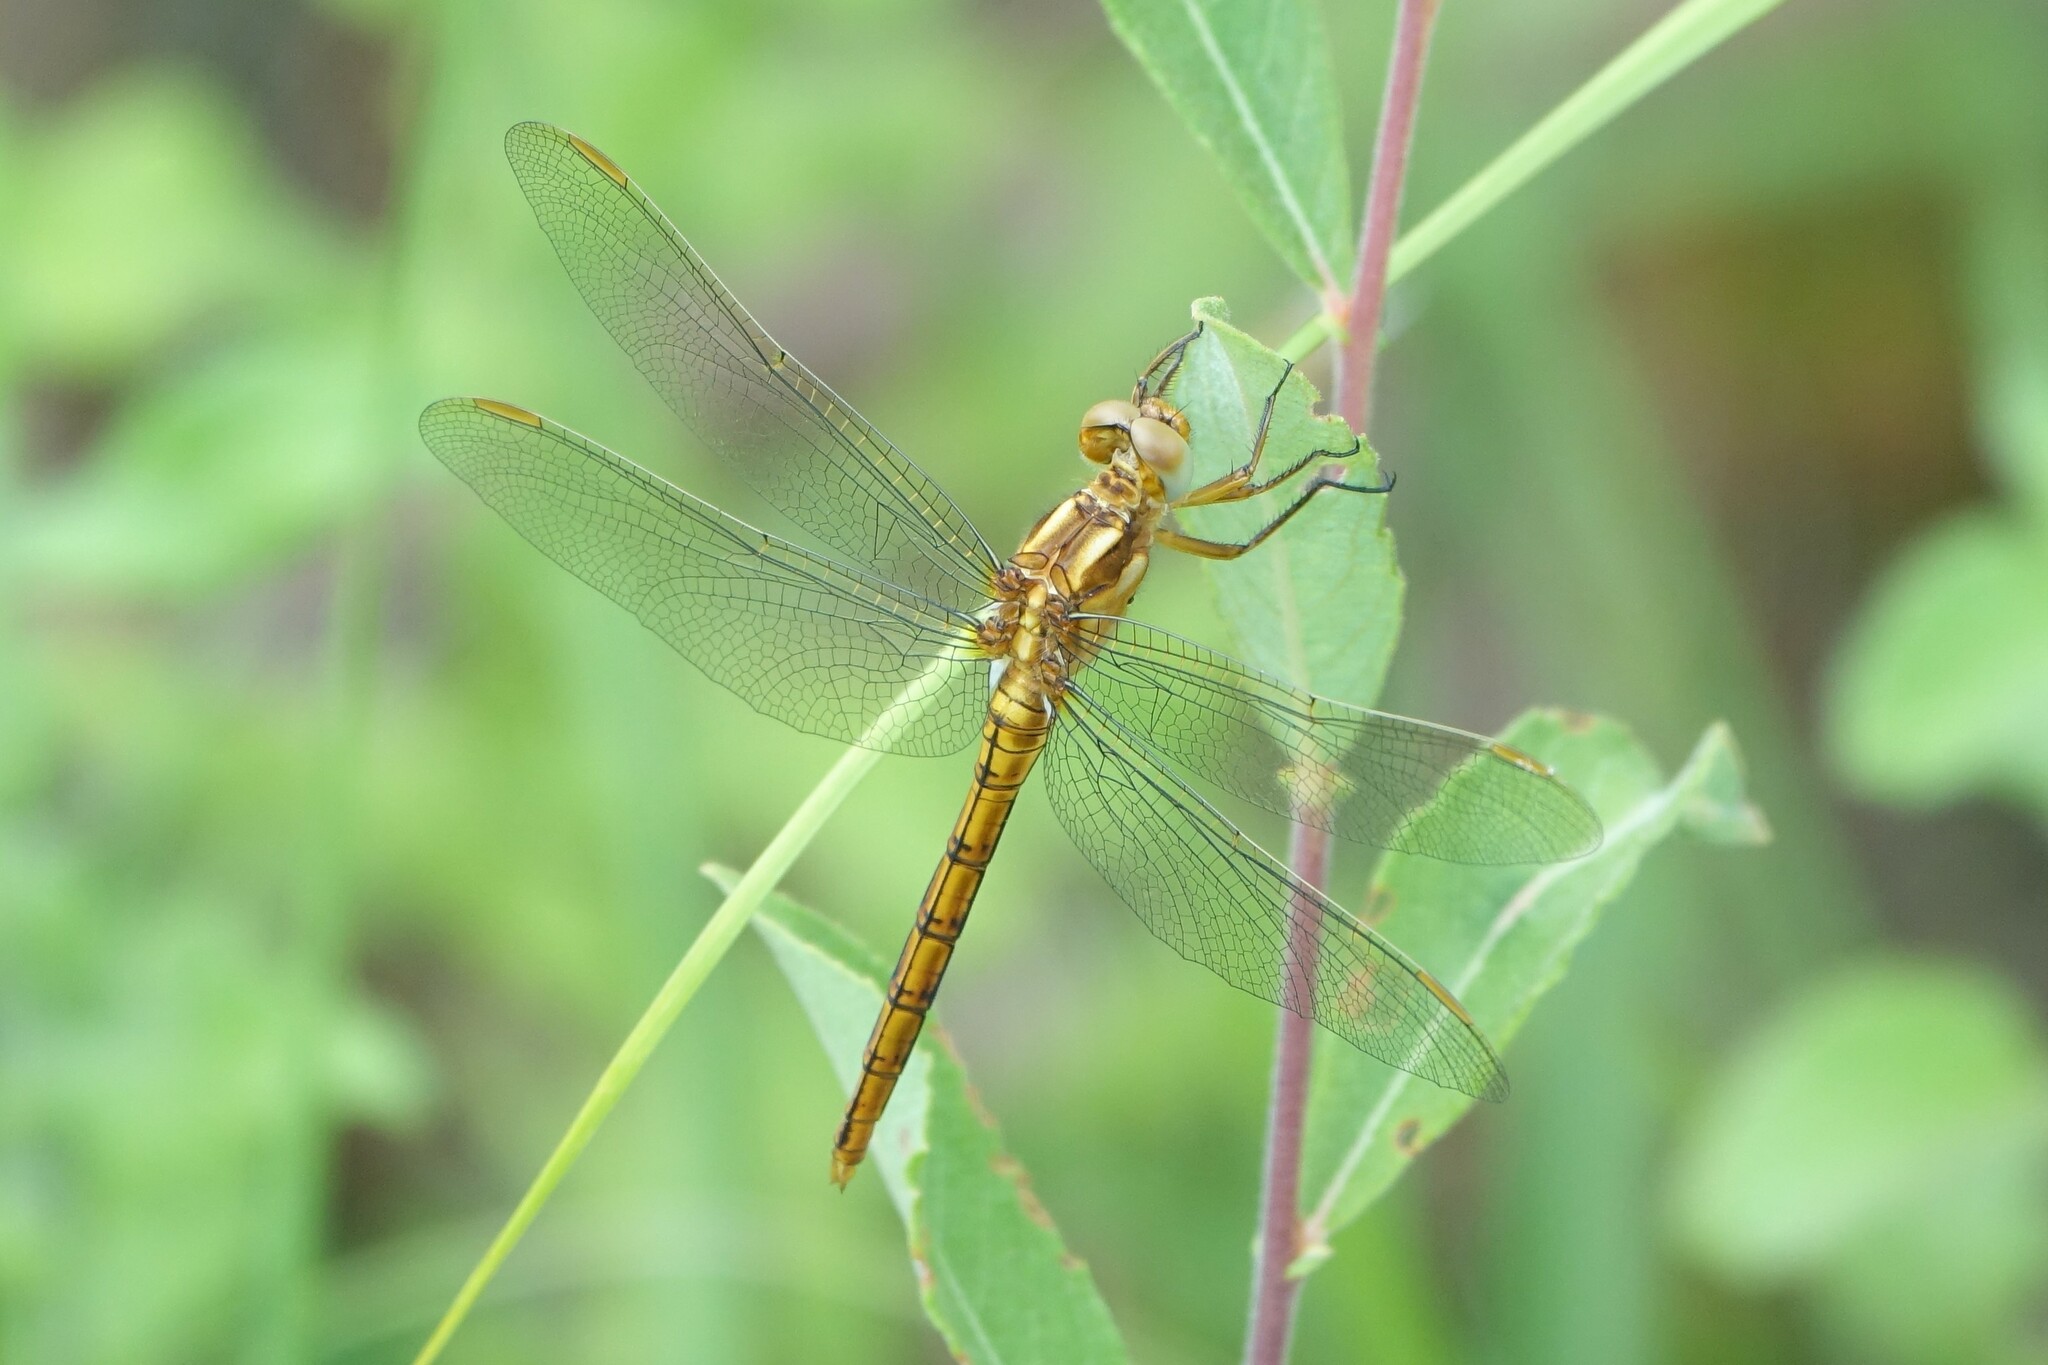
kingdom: Animalia
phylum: Arthropoda
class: Insecta
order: Odonata
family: Libellulidae
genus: Orthetrum
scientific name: Orthetrum coerulescens
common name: Keeled skimmer
